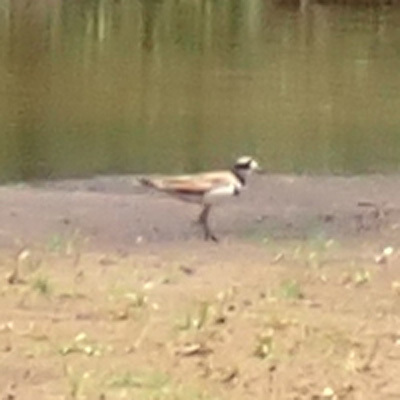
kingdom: Animalia
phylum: Chordata
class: Aves
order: Charadriiformes
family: Charadriidae
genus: Charadrius
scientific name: Charadrius vociferus
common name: Killdeer
